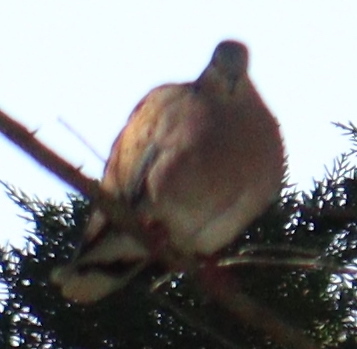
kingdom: Animalia
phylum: Chordata
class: Aves
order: Columbiformes
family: Columbidae
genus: Streptopelia
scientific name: Streptopelia turtur
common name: European turtle dove
